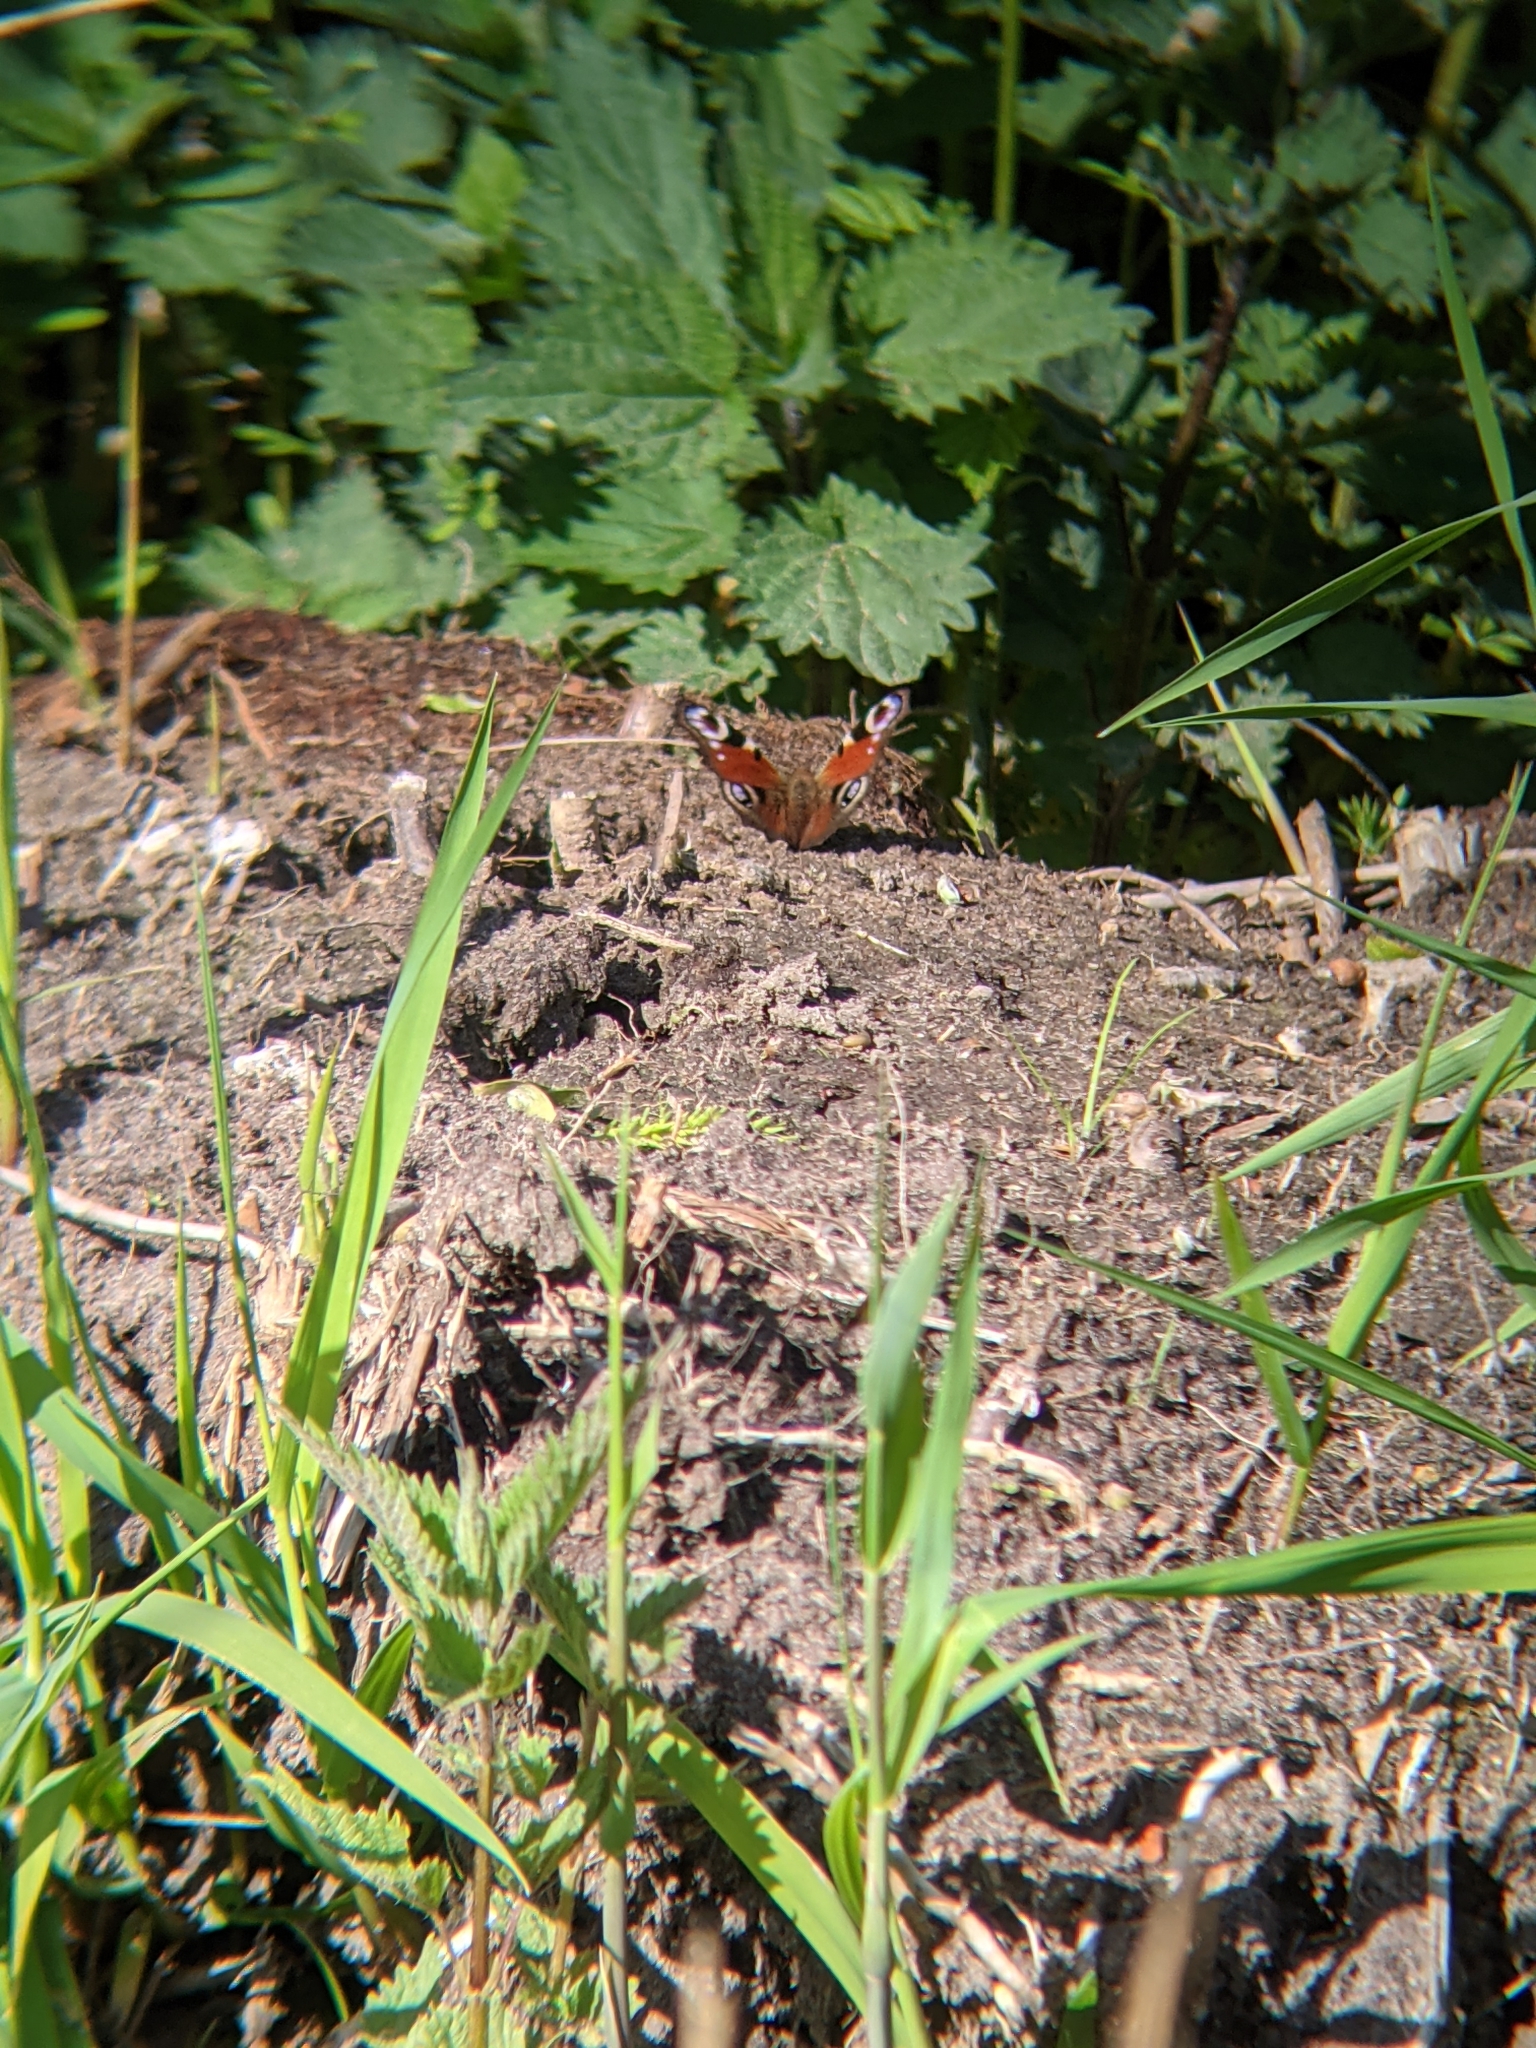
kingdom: Animalia
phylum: Arthropoda
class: Insecta
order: Lepidoptera
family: Nymphalidae
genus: Aglais
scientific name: Aglais io
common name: Peacock
